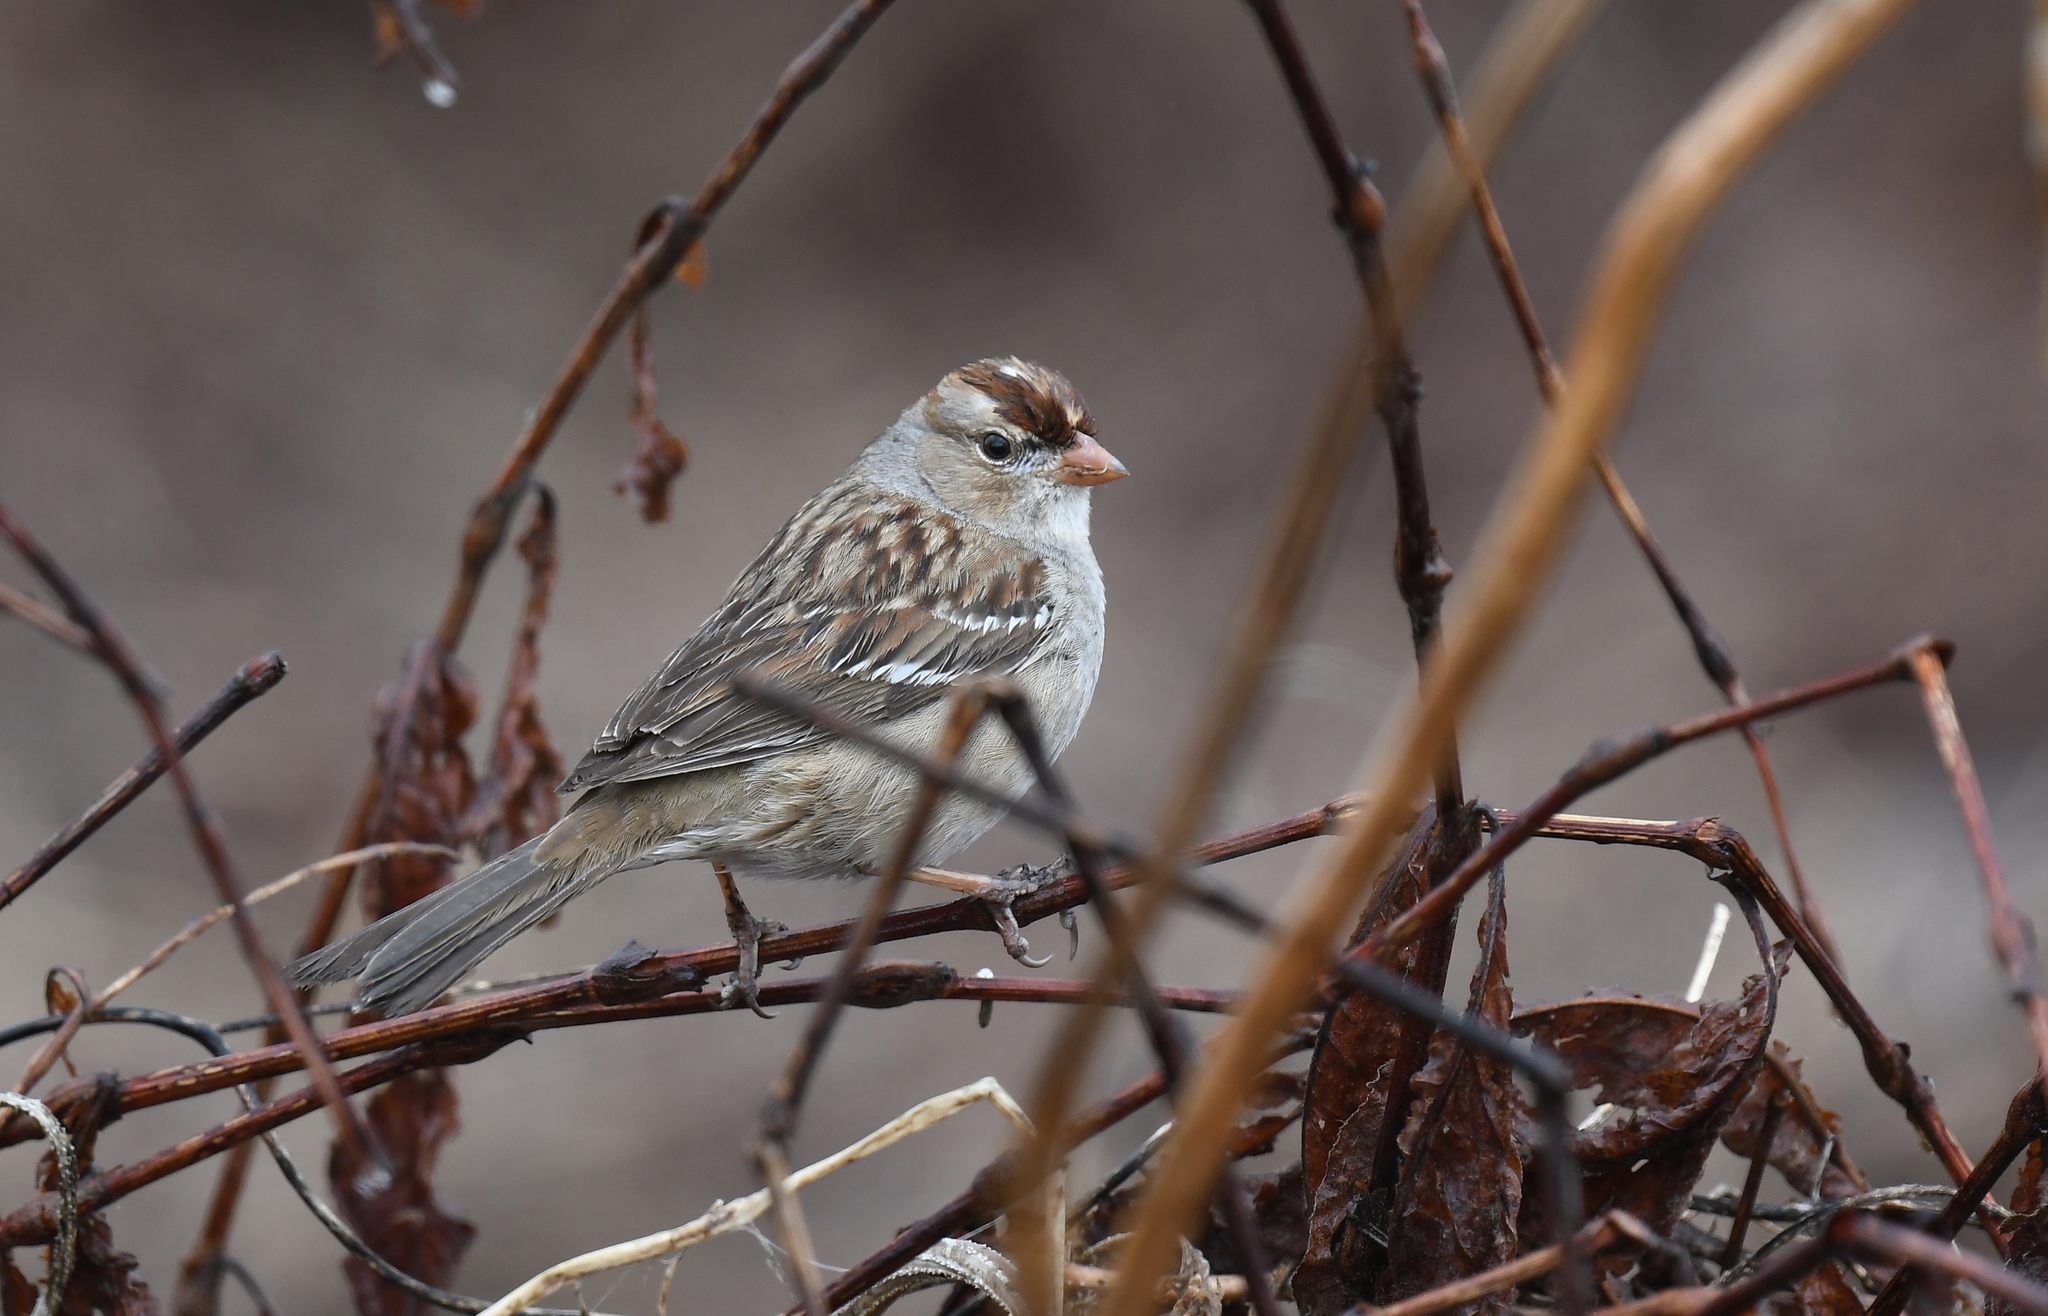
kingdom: Animalia
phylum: Chordata
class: Aves
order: Passeriformes
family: Passerellidae
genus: Zonotrichia
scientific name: Zonotrichia leucophrys
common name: White-crowned sparrow
